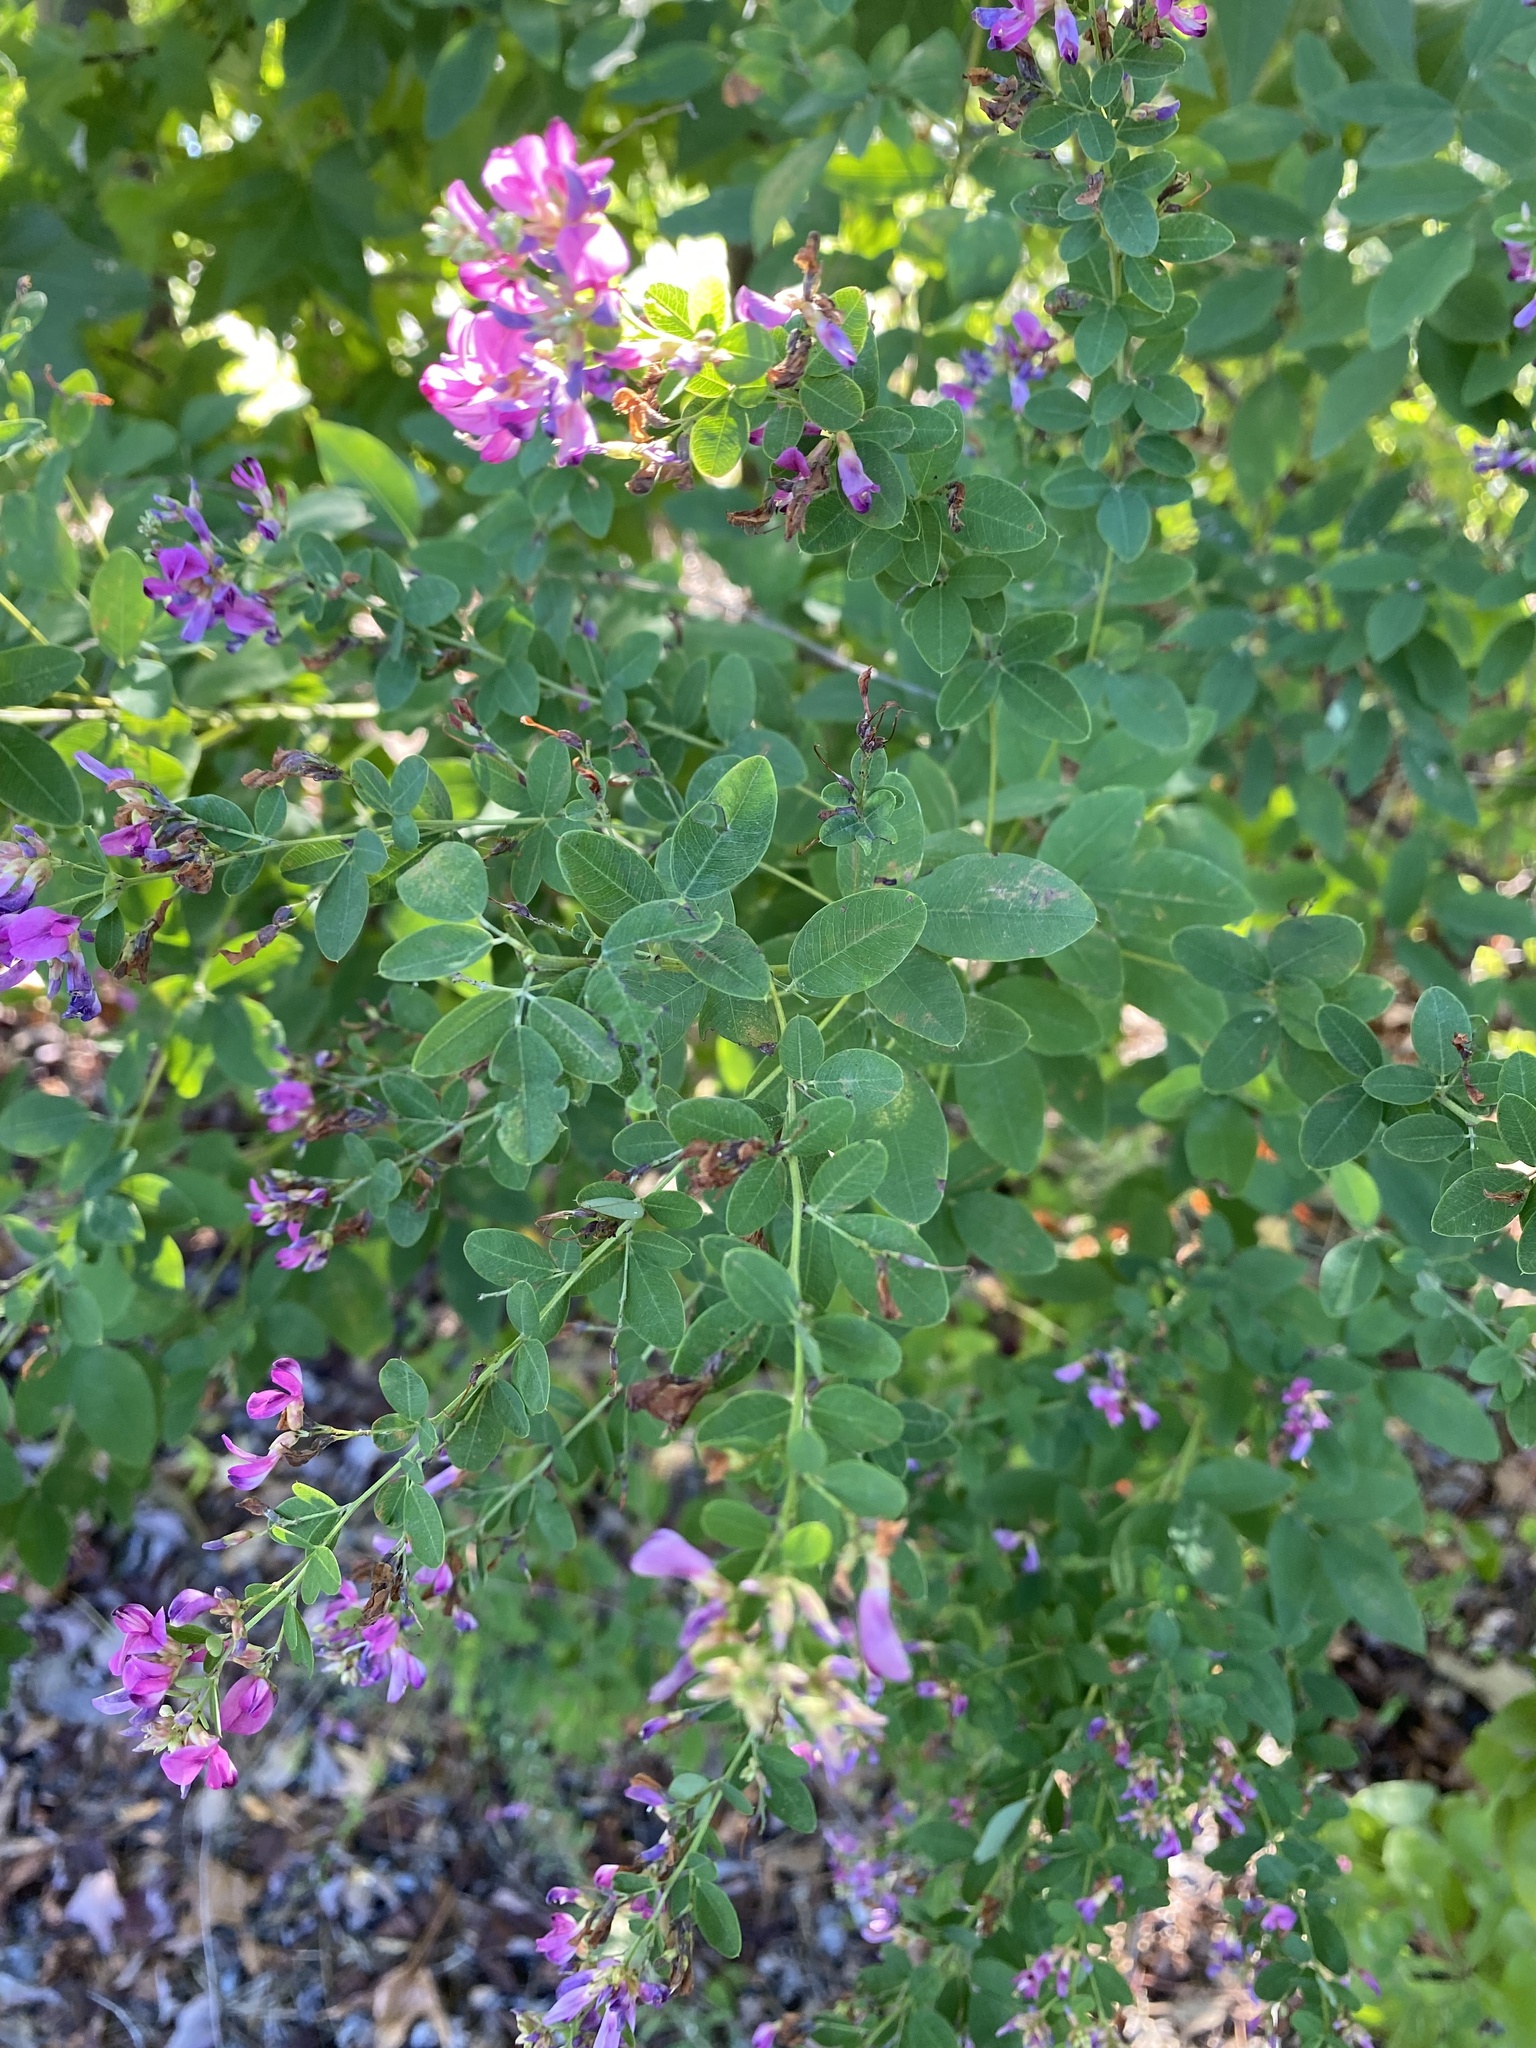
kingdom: Plantae
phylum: Tracheophyta
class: Magnoliopsida
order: Fabales
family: Fabaceae
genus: Lespedeza
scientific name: Lespedeza bicolor
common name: Shrub lespedeza
